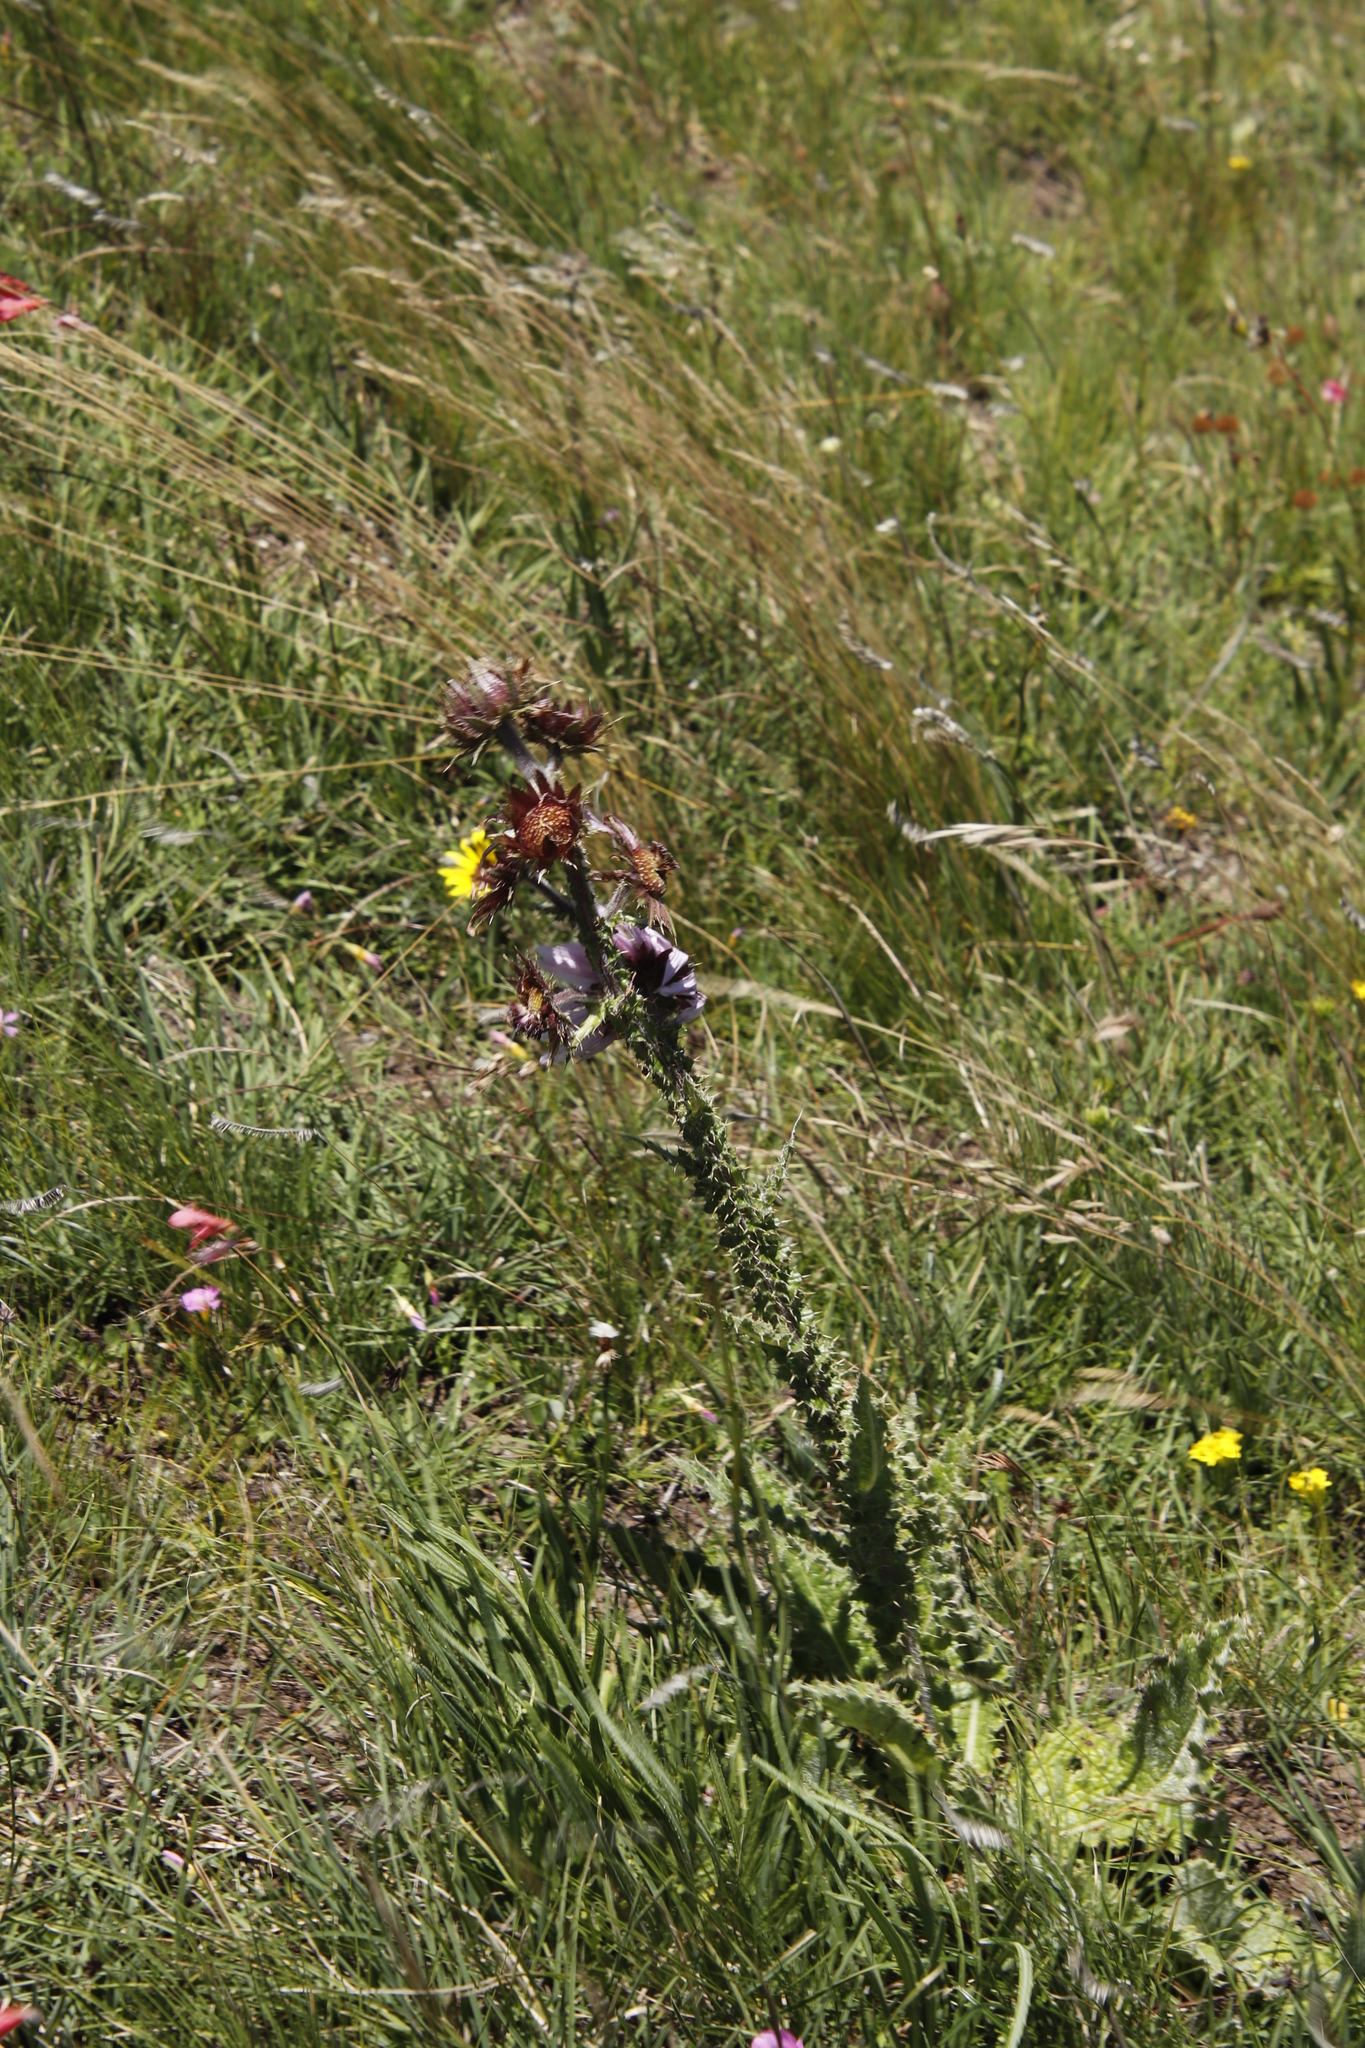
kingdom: Plantae
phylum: Tracheophyta
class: Magnoliopsida
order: Asterales
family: Asteraceae
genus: Berkheya
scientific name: Berkheya purpurea
